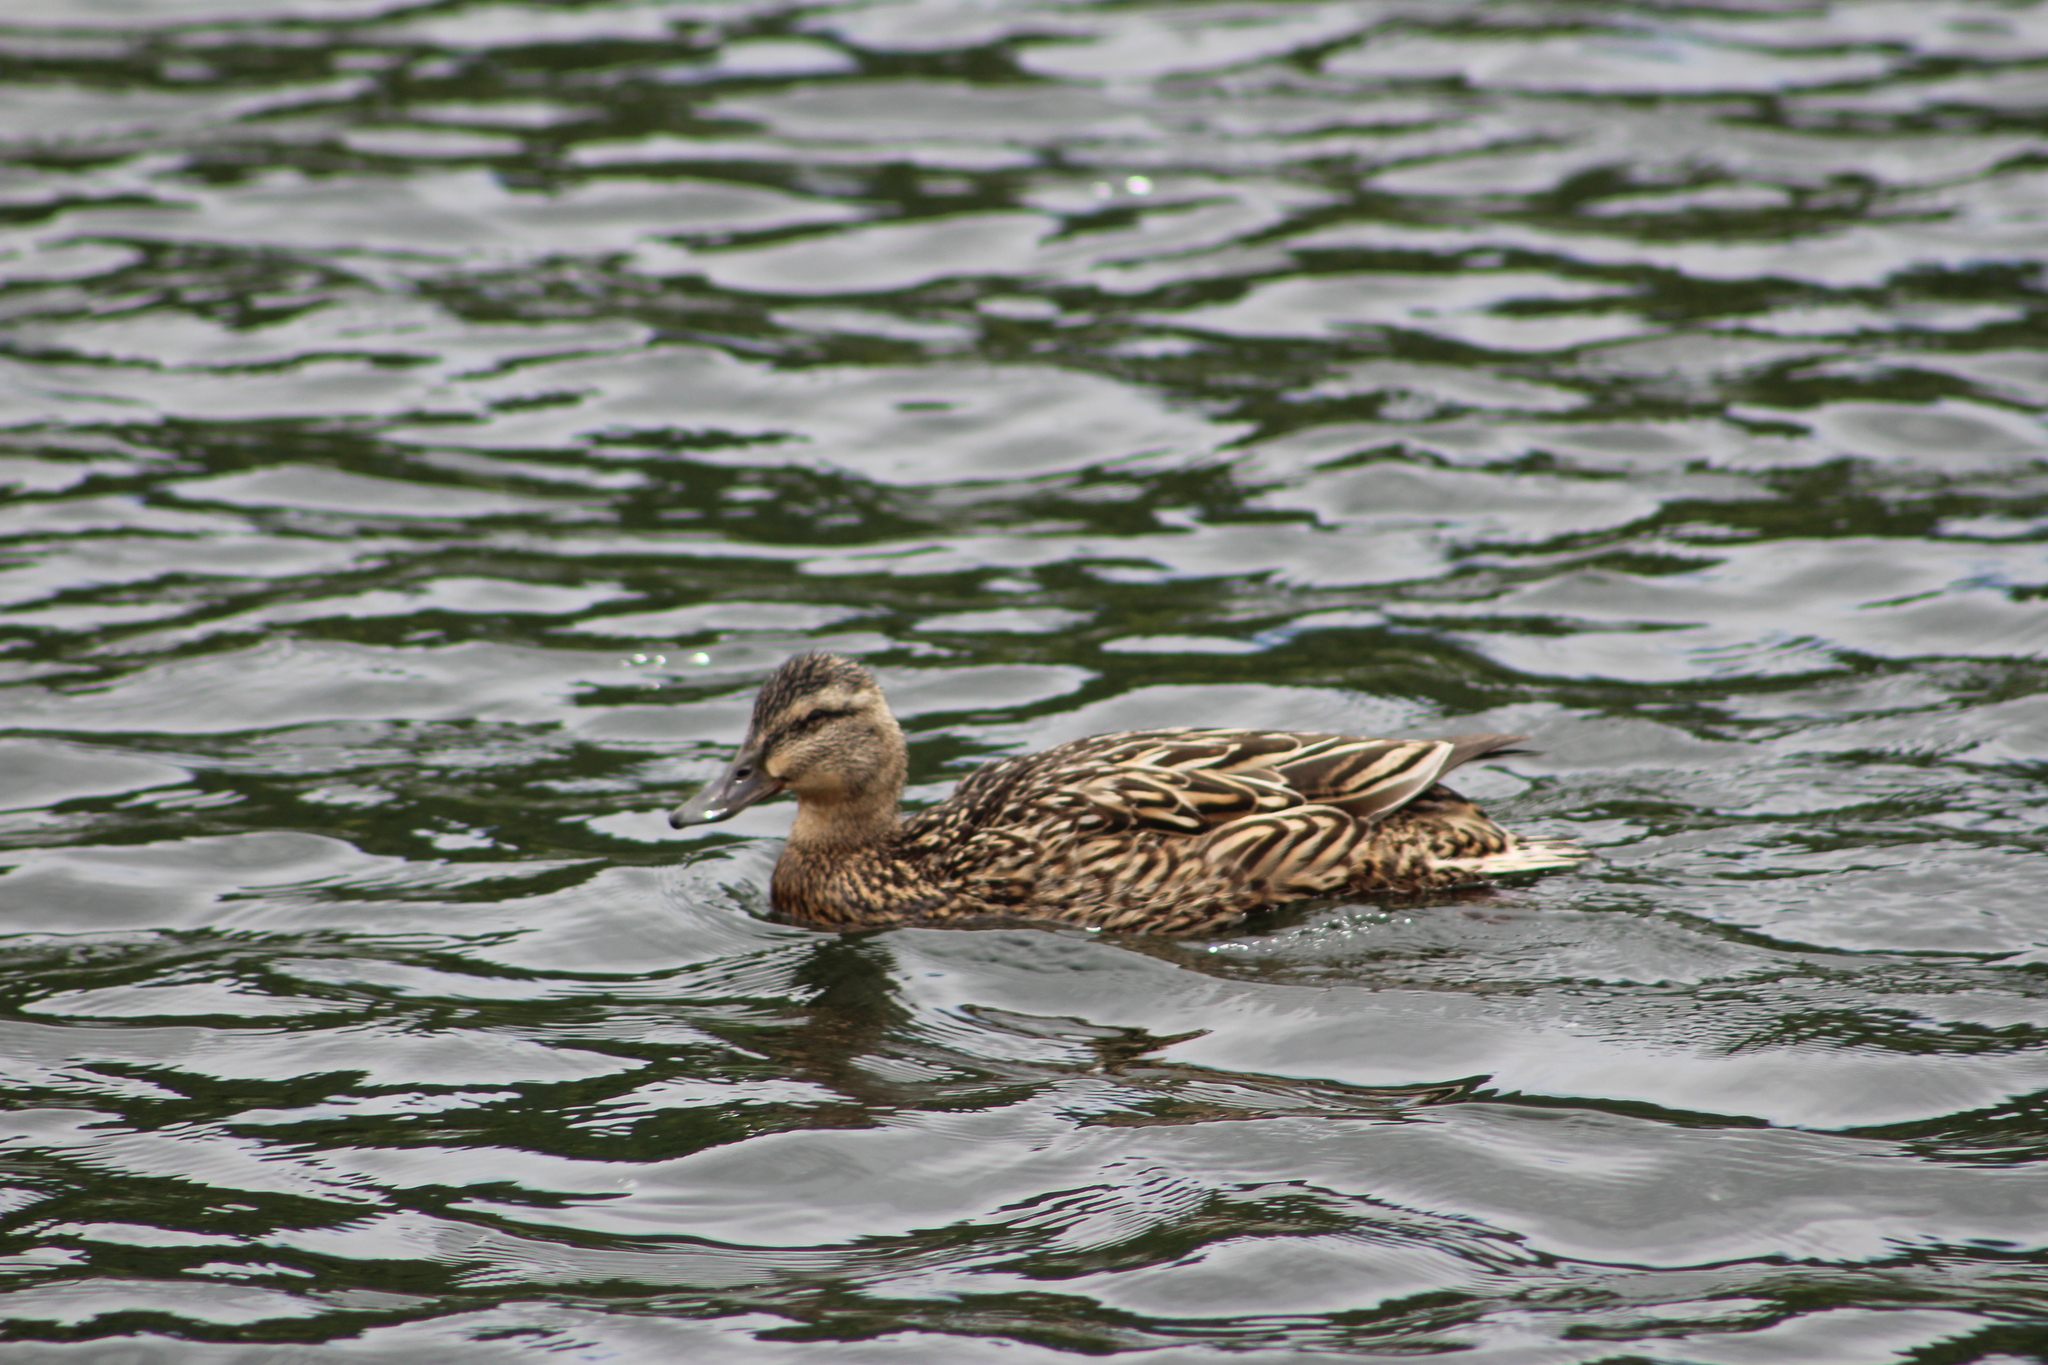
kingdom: Animalia
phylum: Chordata
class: Aves
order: Anseriformes
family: Anatidae
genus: Anas
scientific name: Anas platyrhynchos
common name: Mallard
